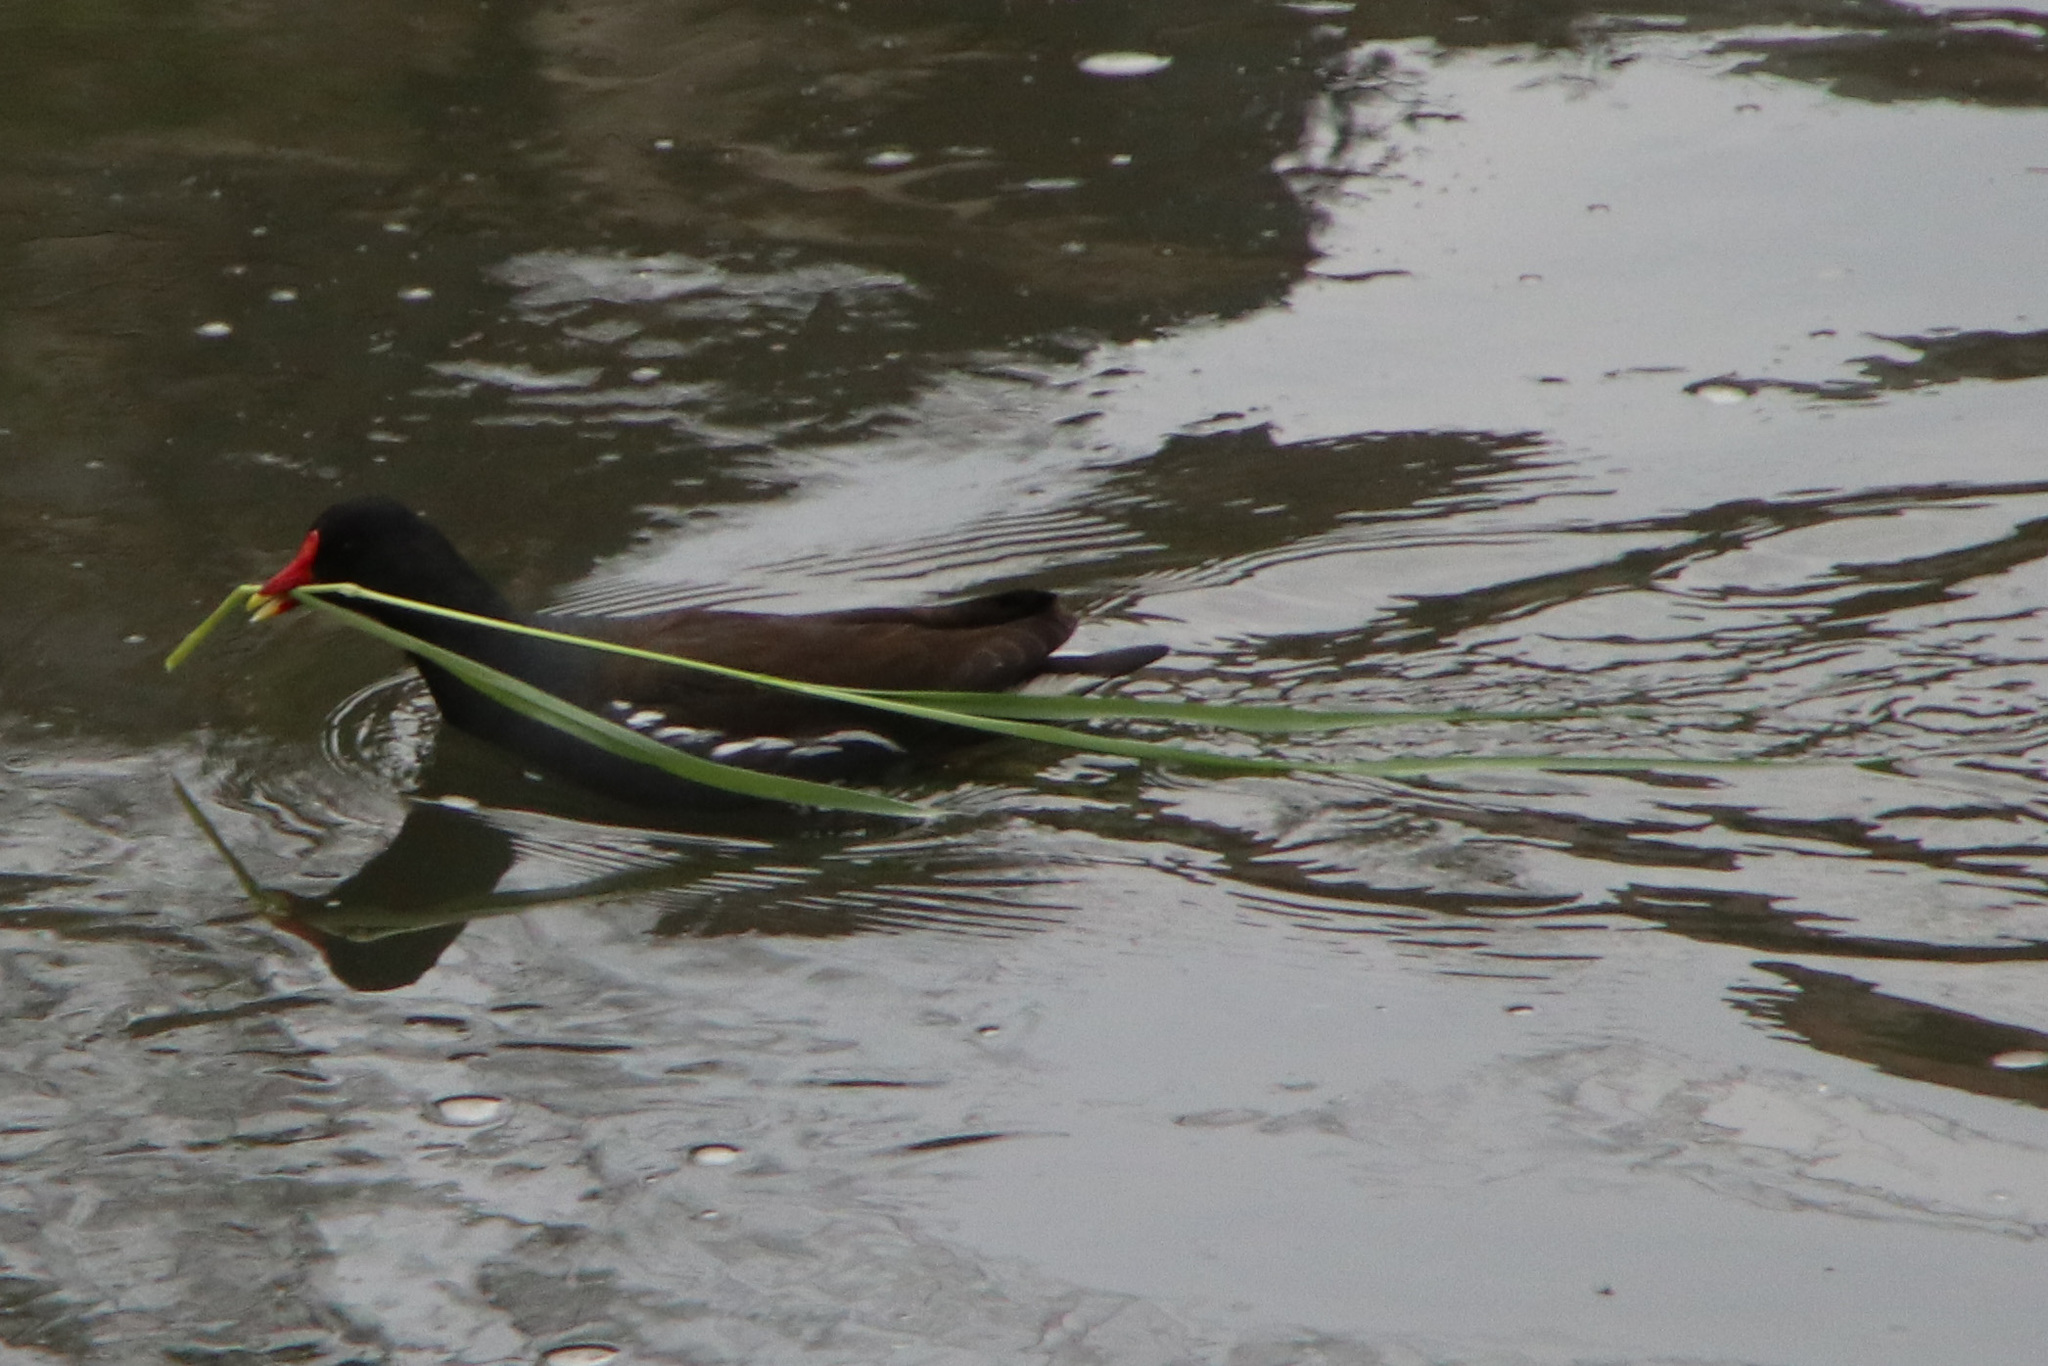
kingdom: Animalia
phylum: Chordata
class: Aves
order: Gruiformes
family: Rallidae
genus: Gallinula
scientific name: Gallinula chloropus
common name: Common moorhen
